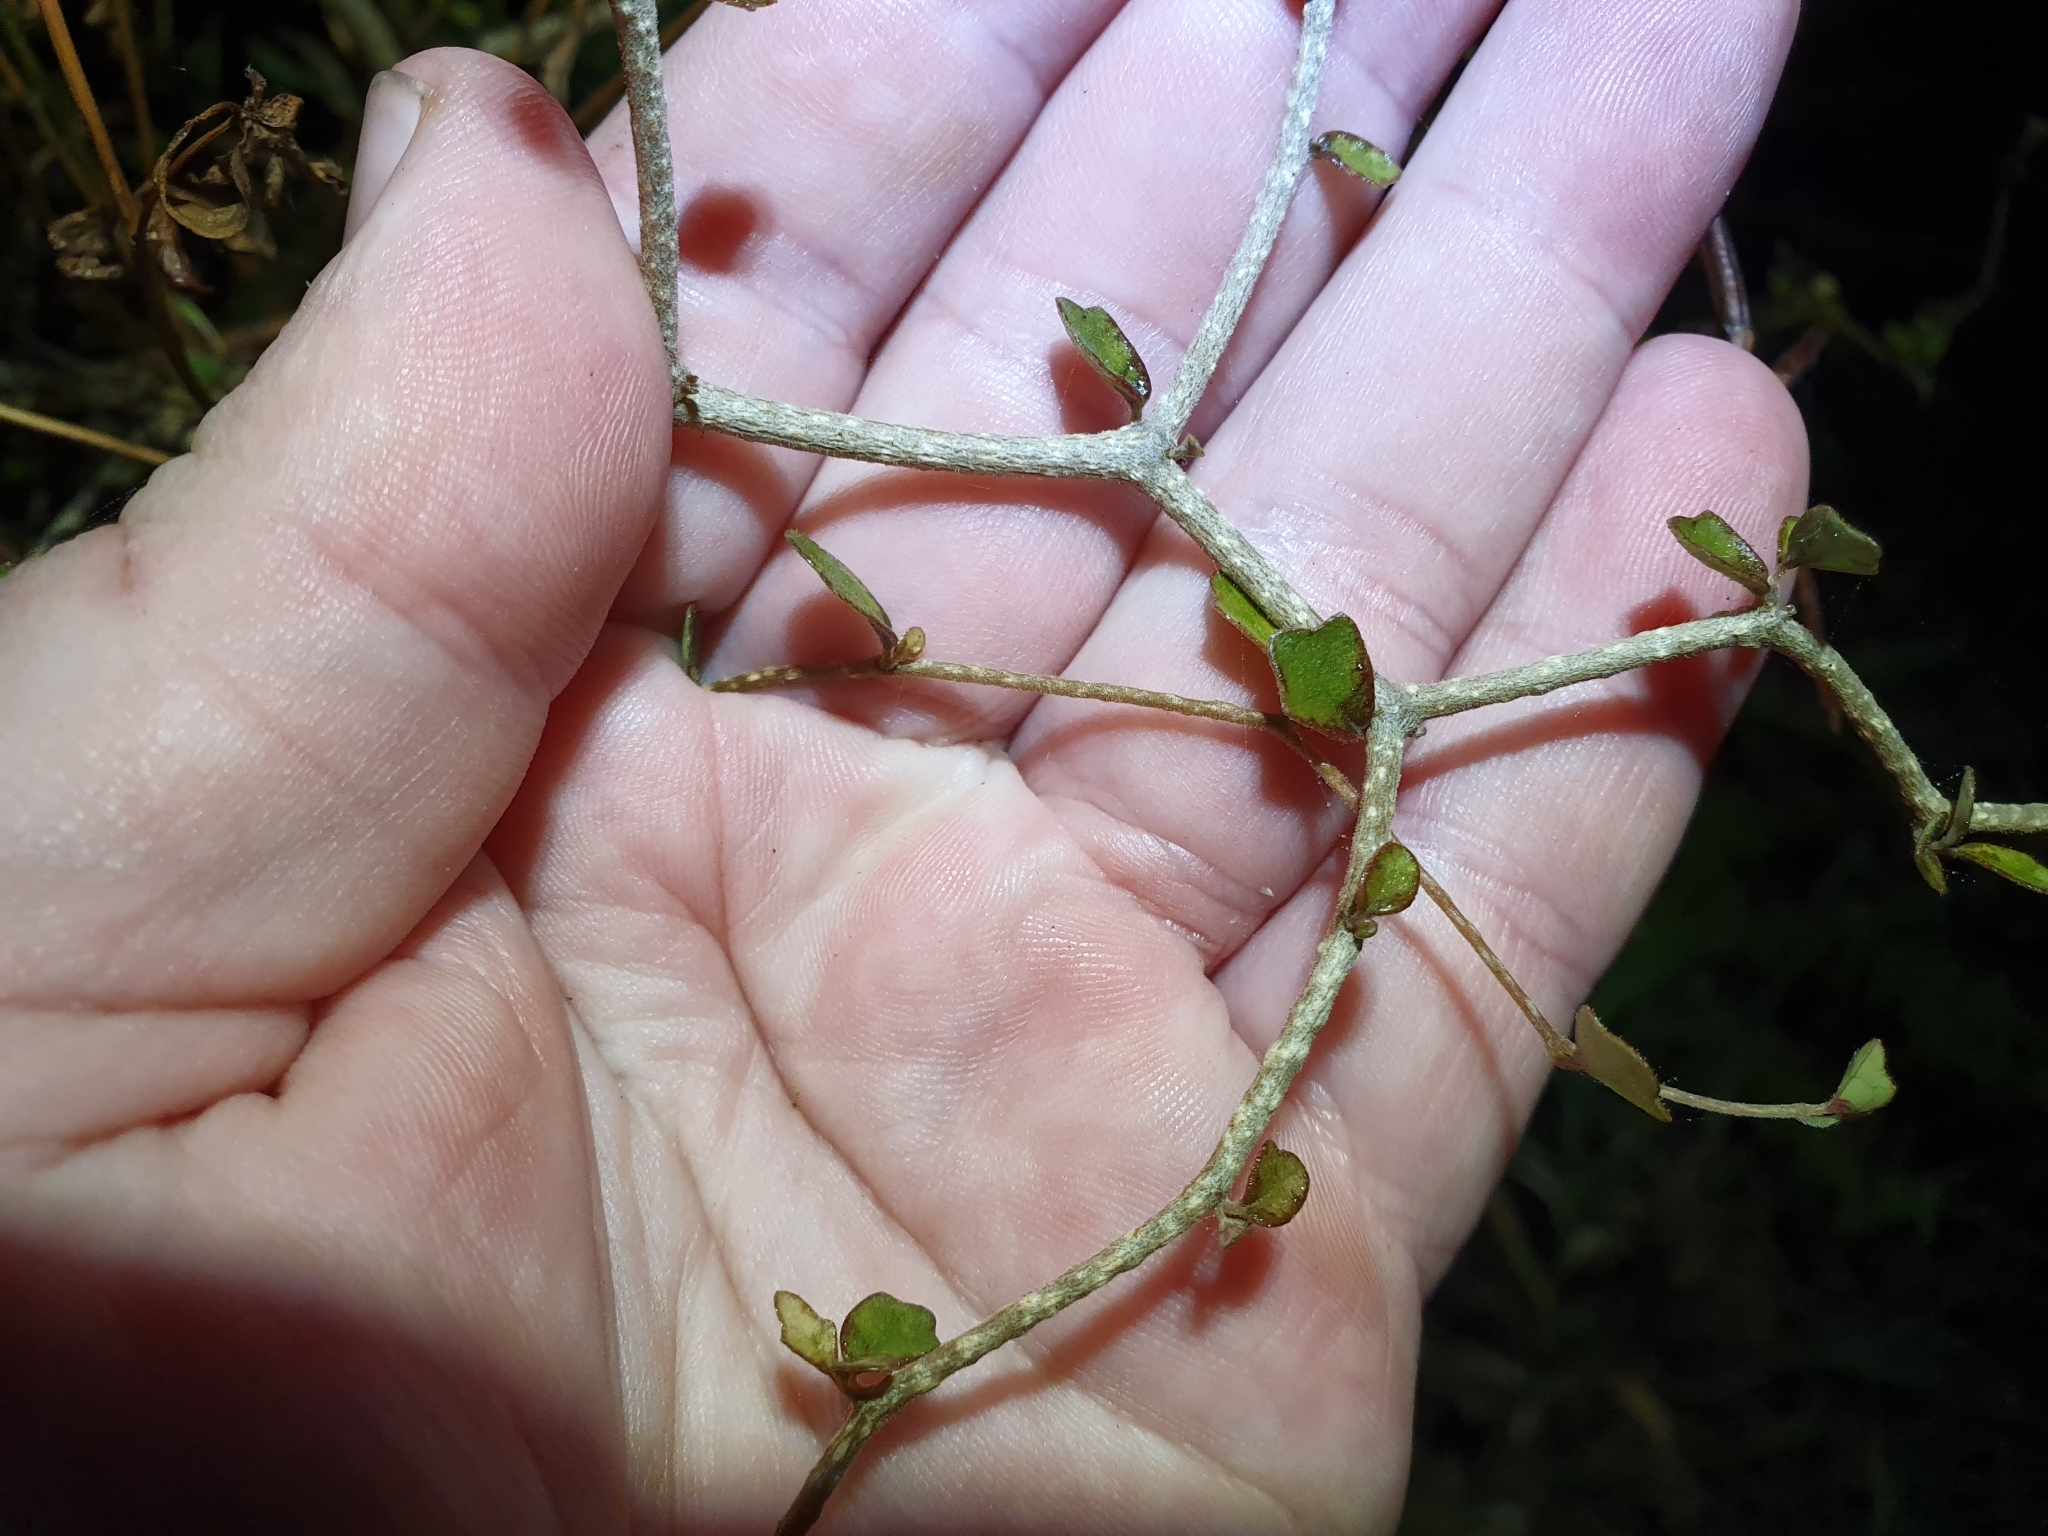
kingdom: Plantae
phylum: Tracheophyta
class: Magnoliopsida
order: Apiales
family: Pennantiaceae
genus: Pennantia
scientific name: Pennantia corymbosa
